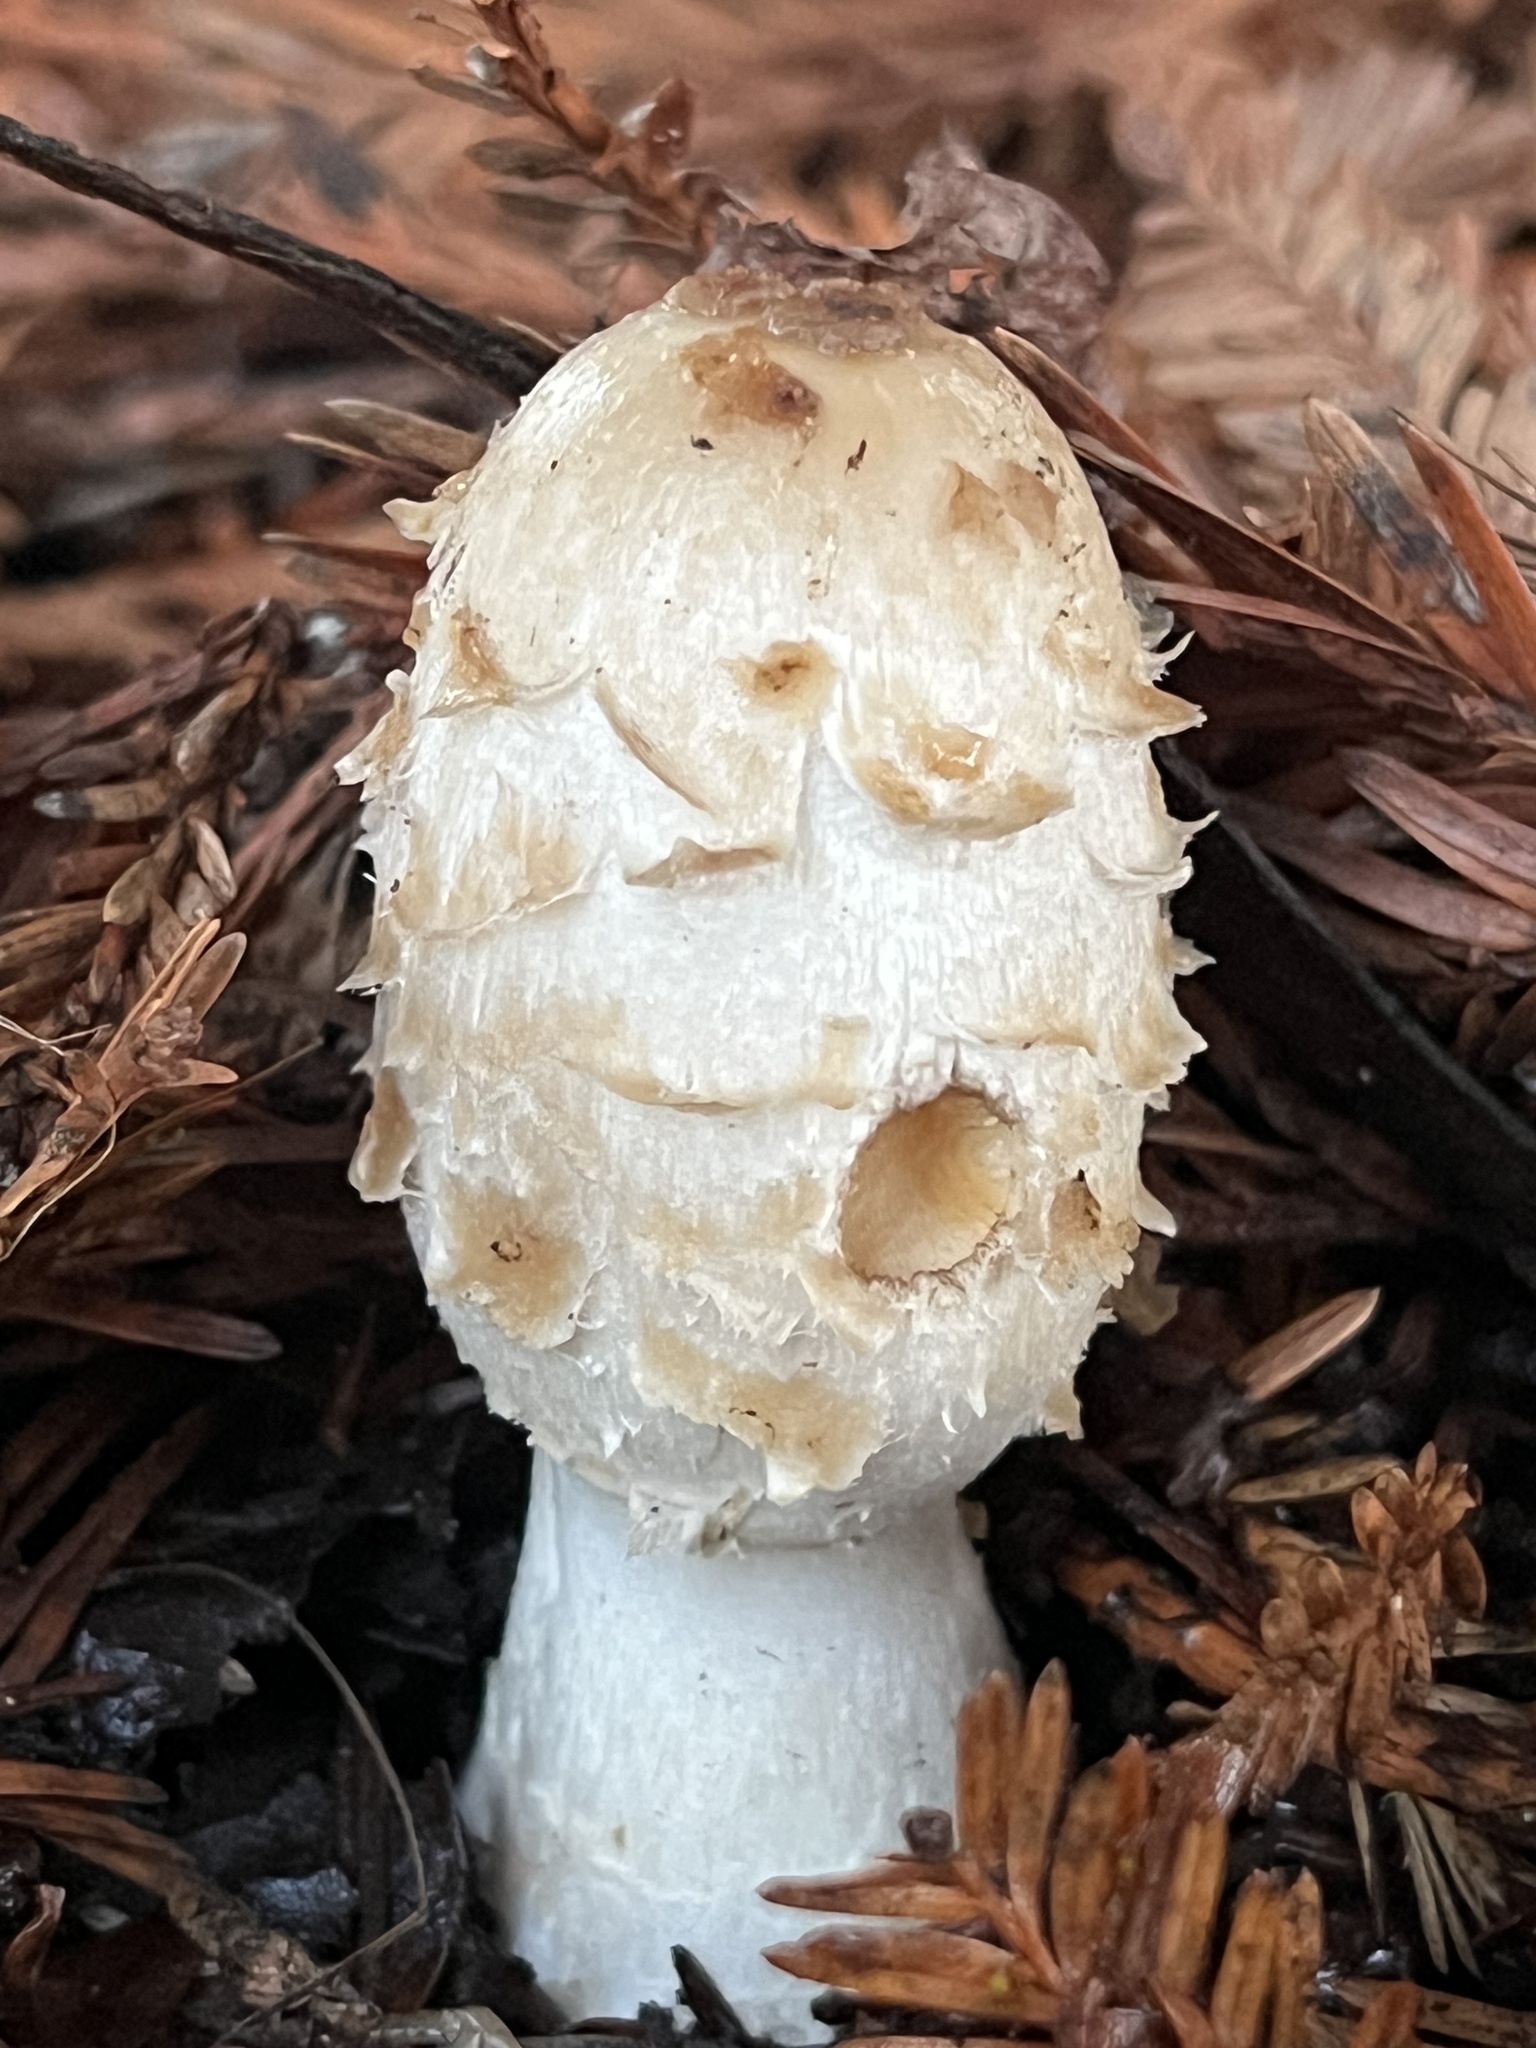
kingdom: Fungi
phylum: Basidiomycota
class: Agaricomycetes
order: Agaricales
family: Agaricaceae
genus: Coprinus
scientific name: Coprinus comatus
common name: Lawyer's wig
